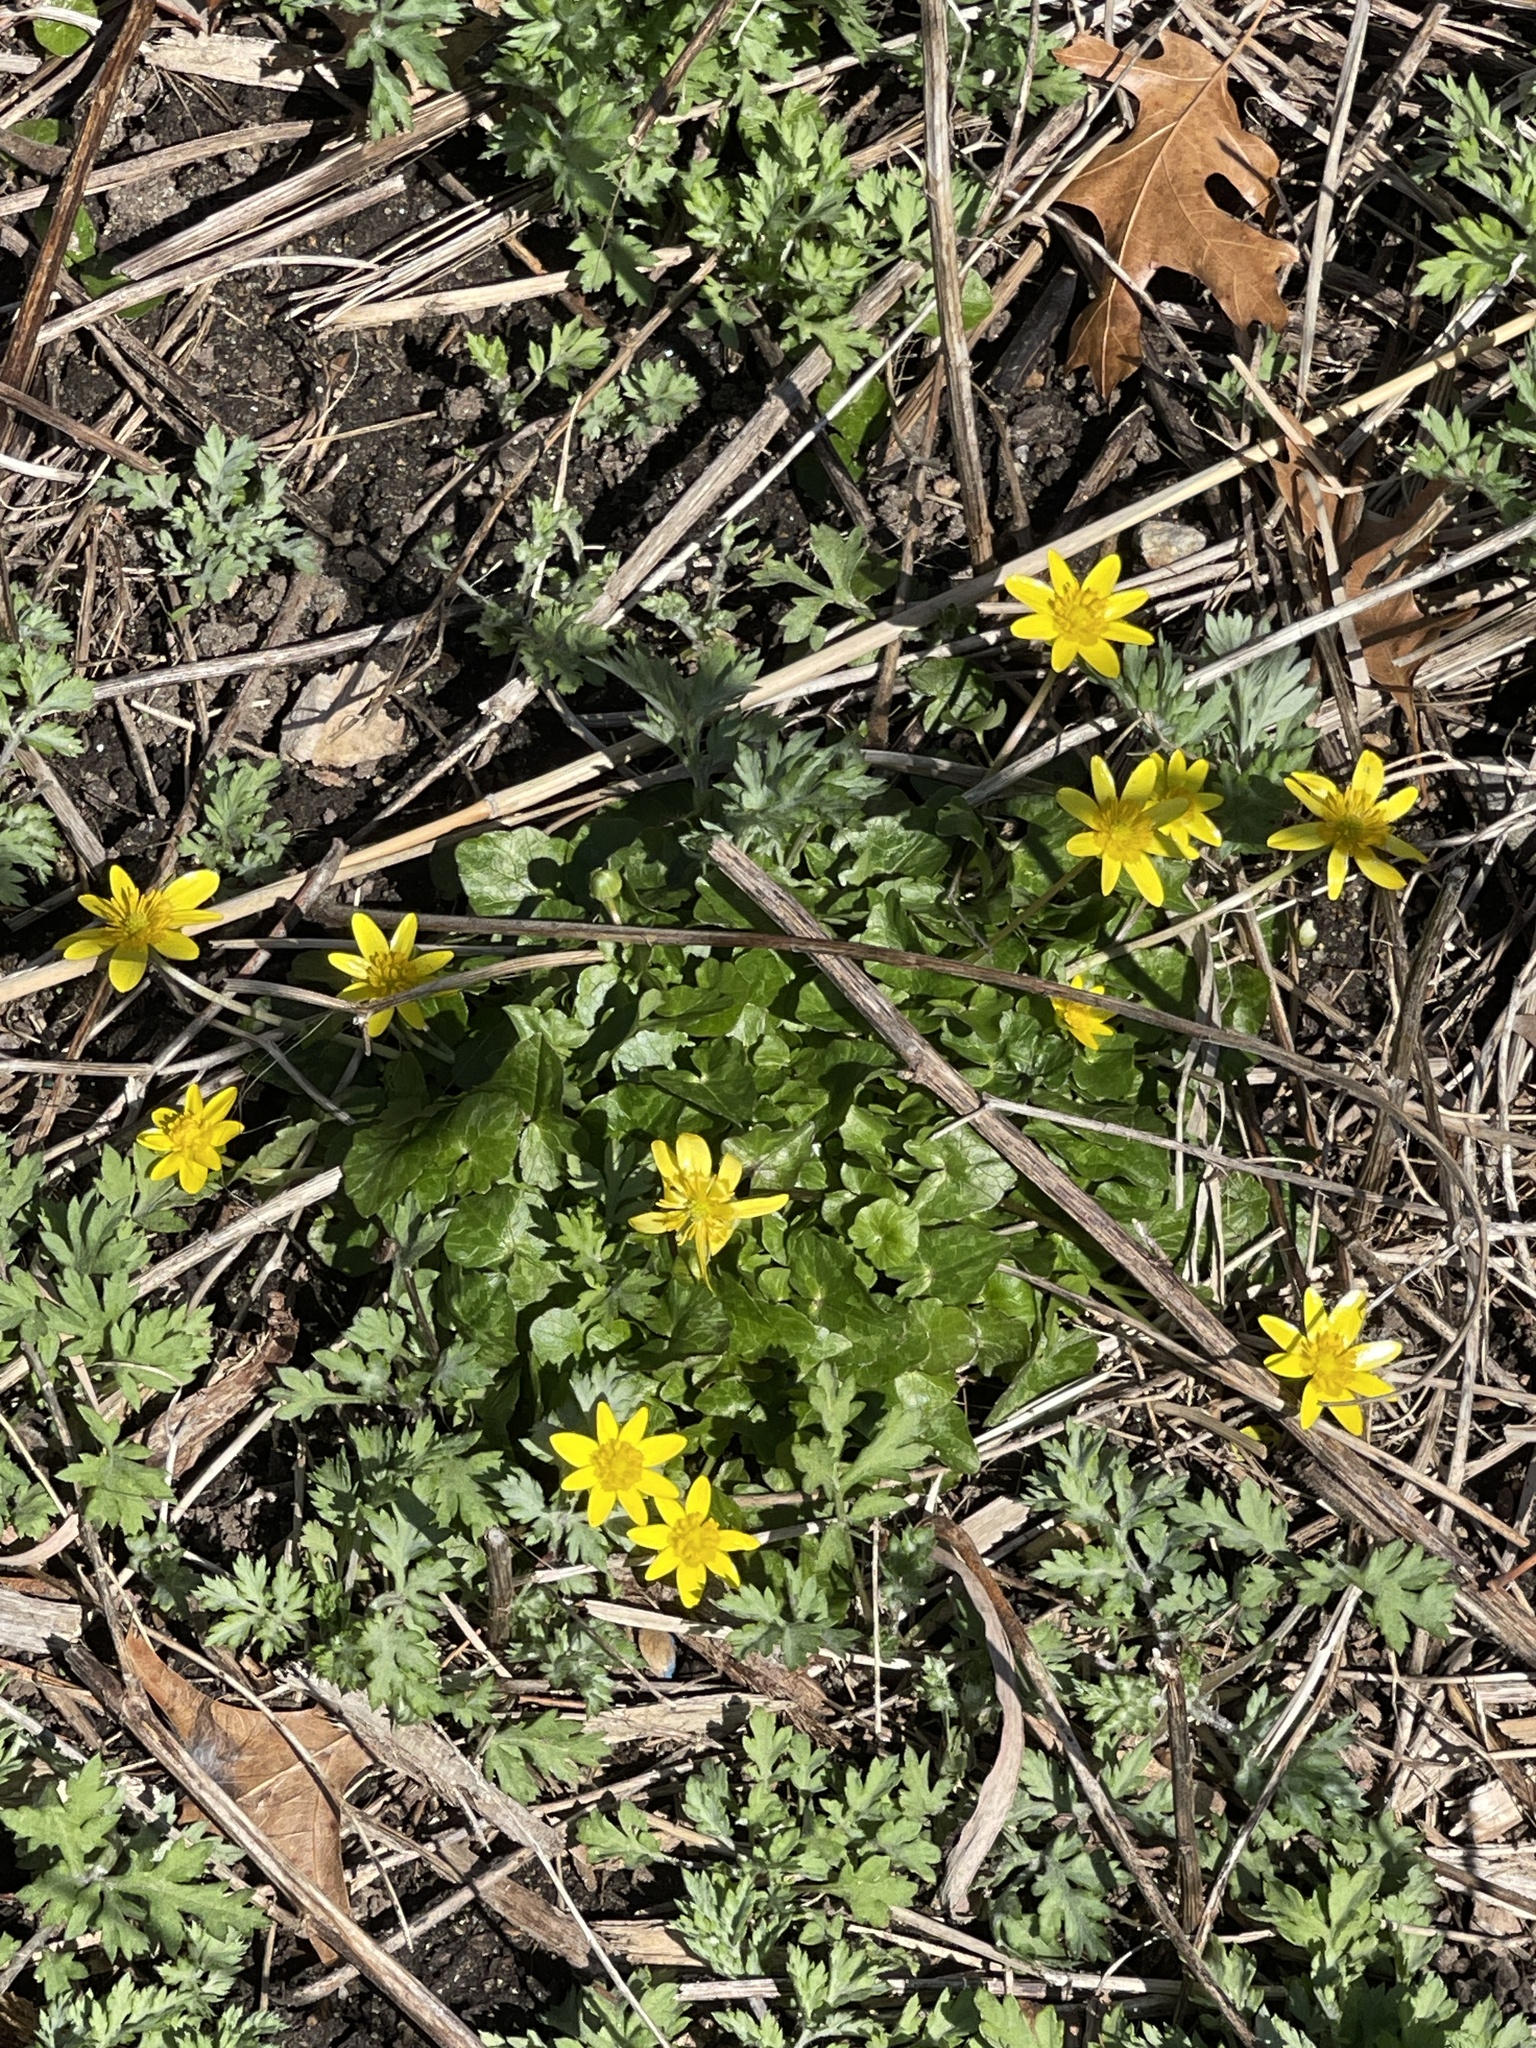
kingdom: Plantae
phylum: Tracheophyta
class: Magnoliopsida
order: Ranunculales
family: Ranunculaceae
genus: Ficaria
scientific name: Ficaria verna
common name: Lesser celandine
